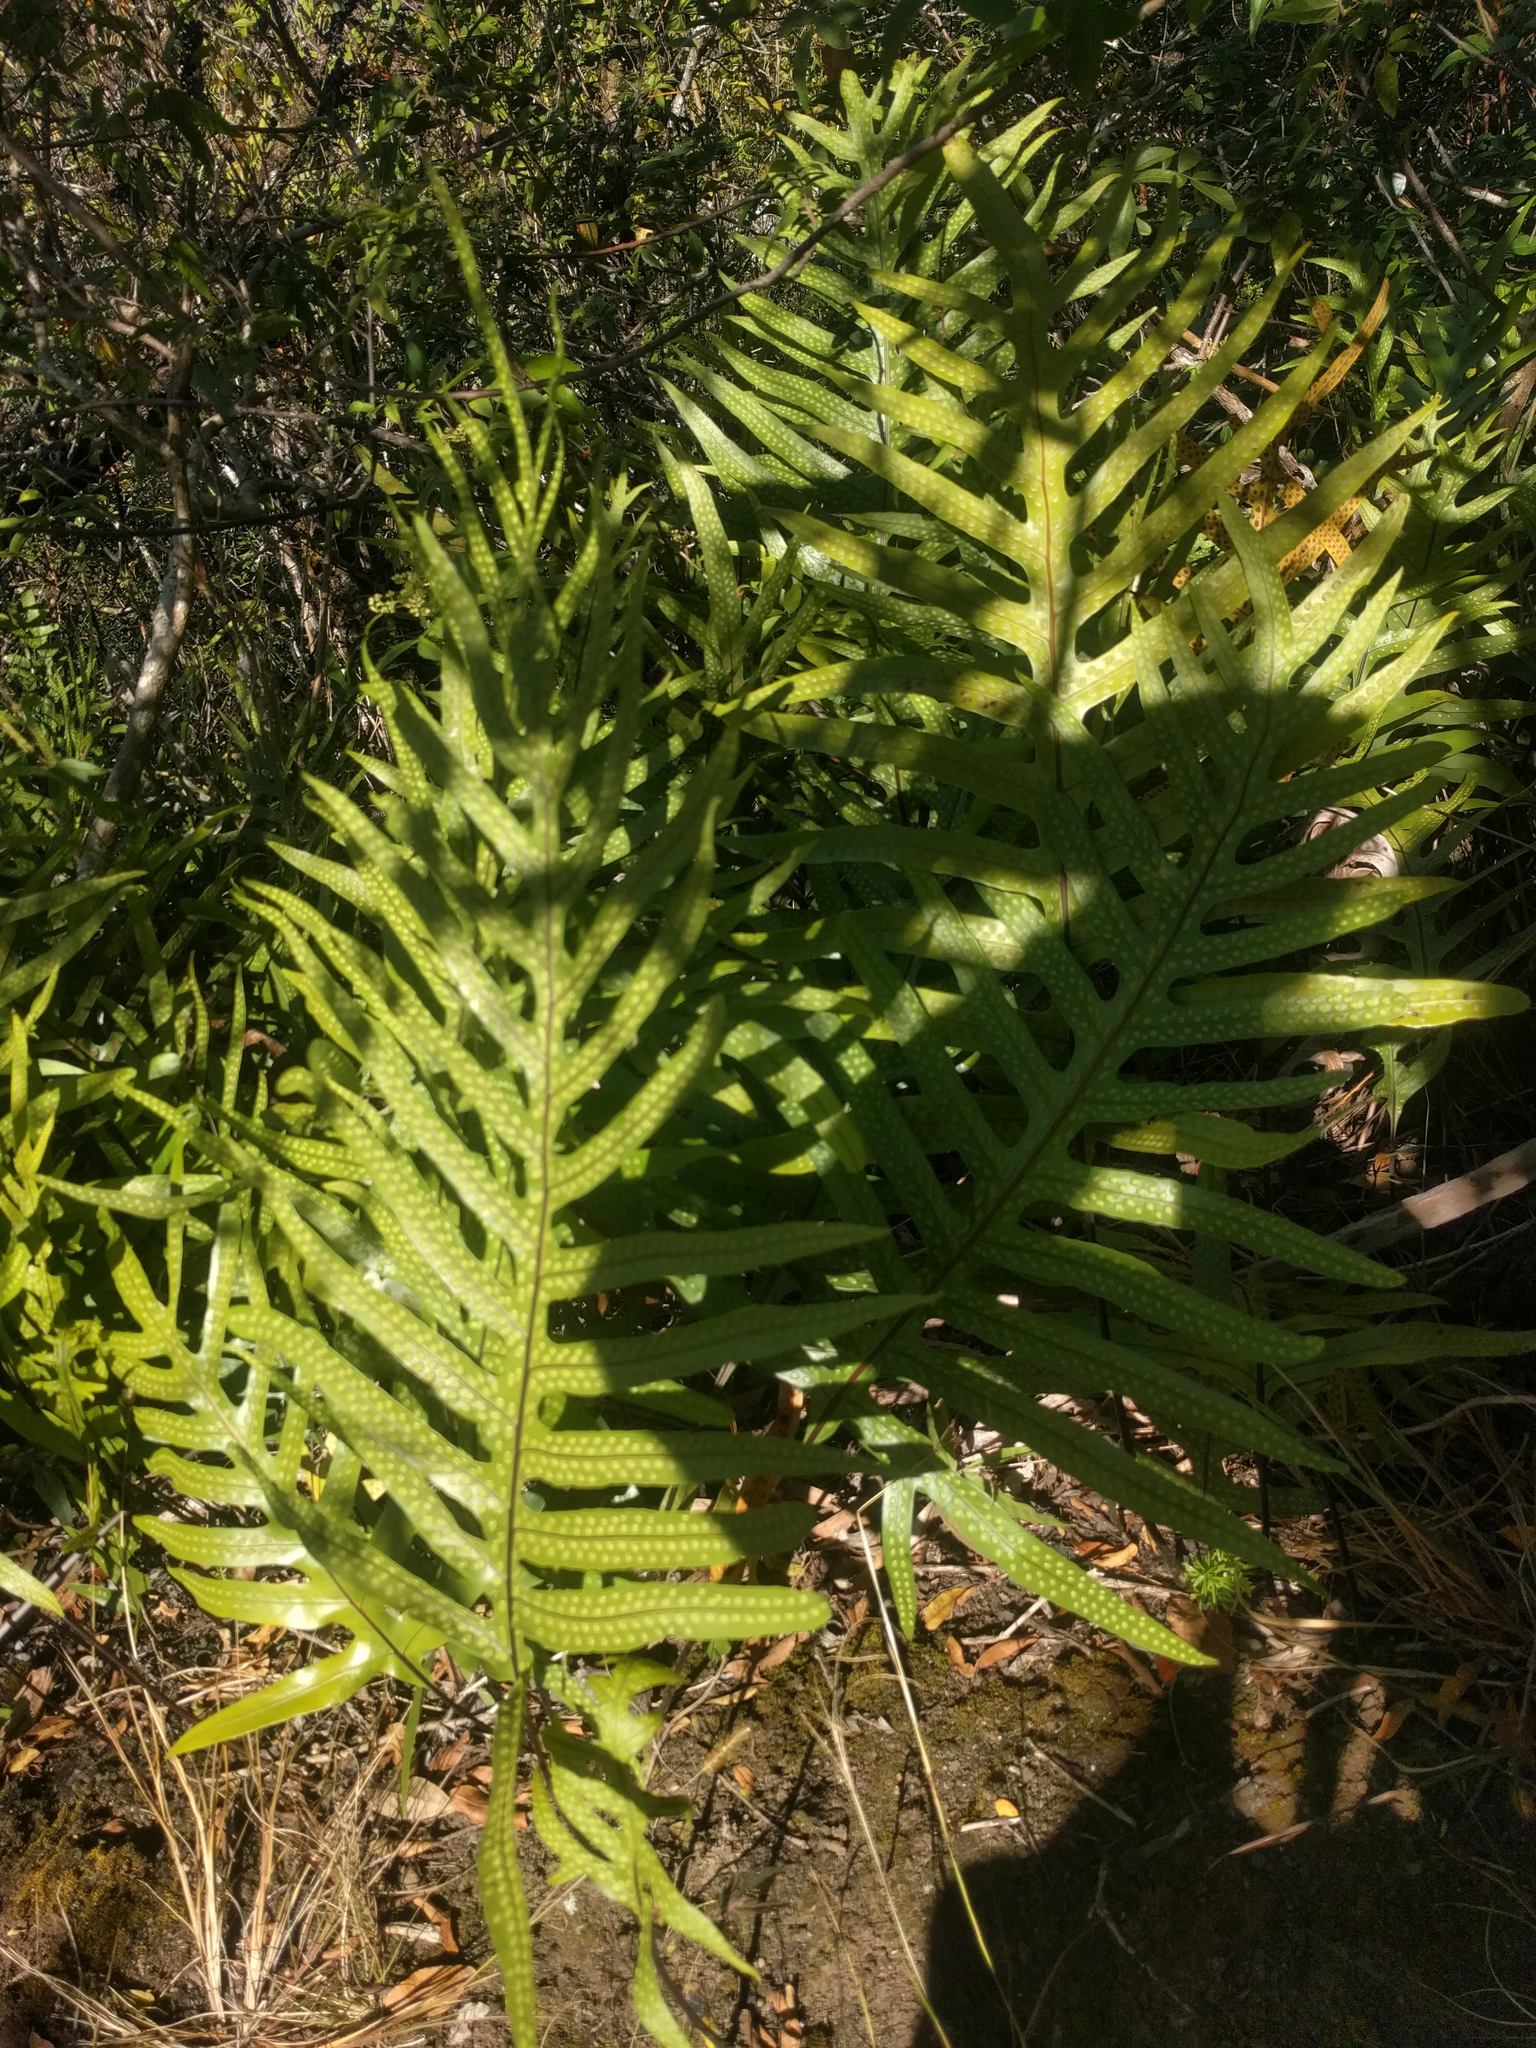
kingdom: Plantae
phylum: Tracheophyta
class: Polypodiopsida
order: Polypodiales
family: Polypodiaceae
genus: Microsorum
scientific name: Microsorum grossum
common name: Musk fern
